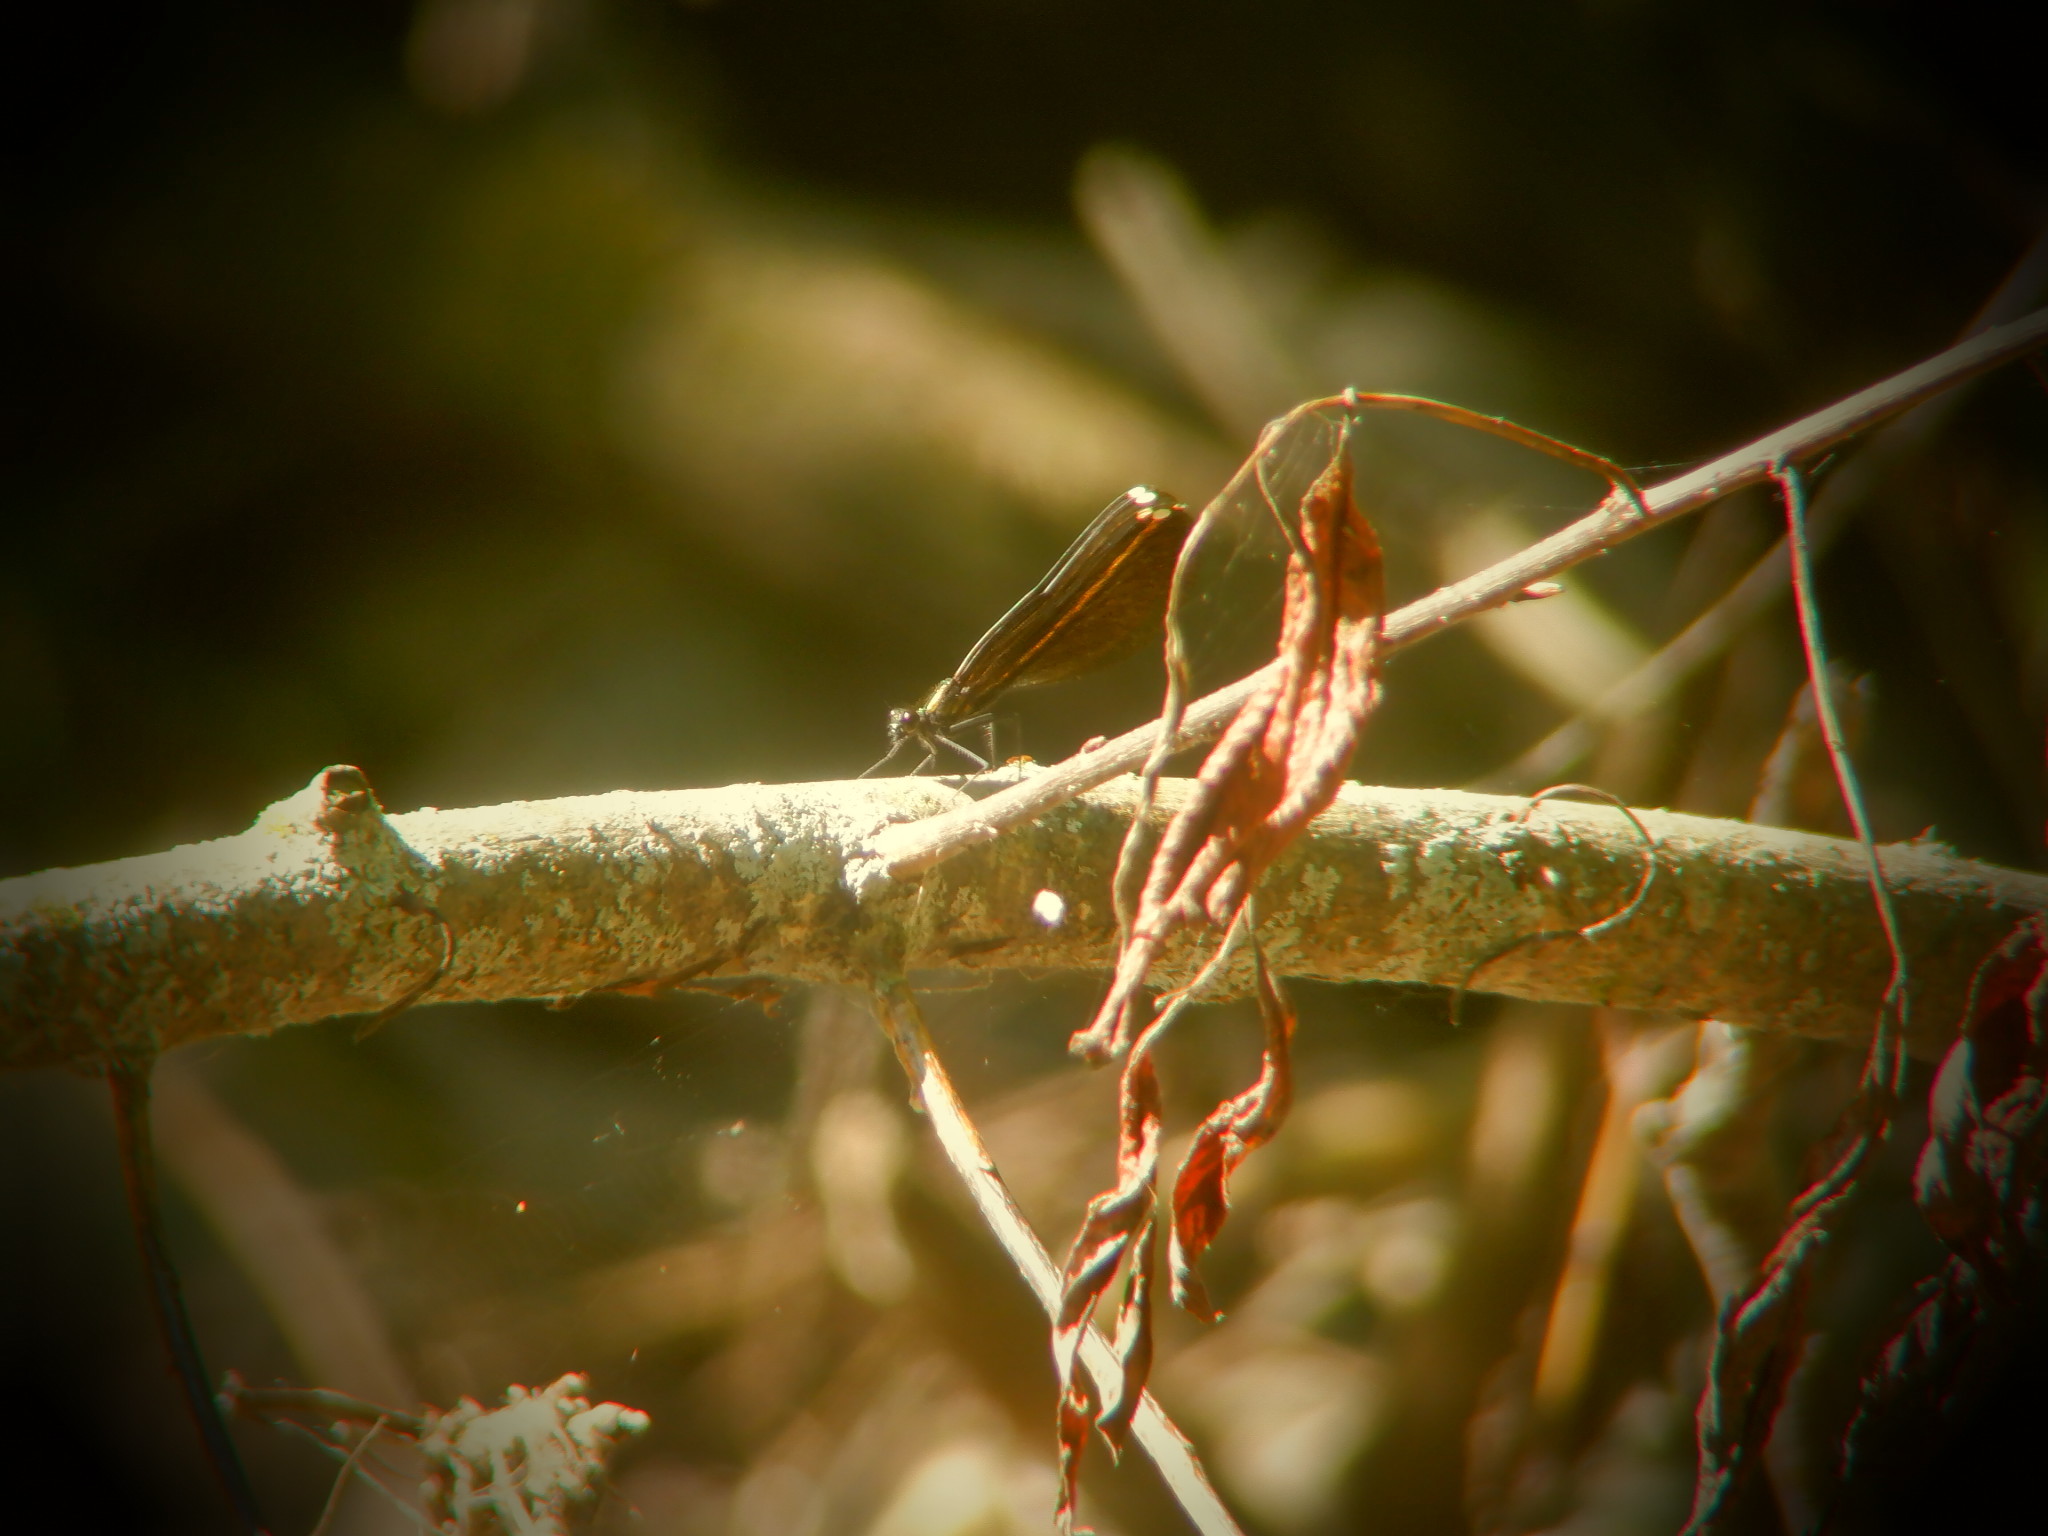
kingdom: Animalia
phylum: Arthropoda
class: Insecta
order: Odonata
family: Calopterygidae
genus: Calopteryx
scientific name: Calopteryx maculata
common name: Ebony jewelwing
